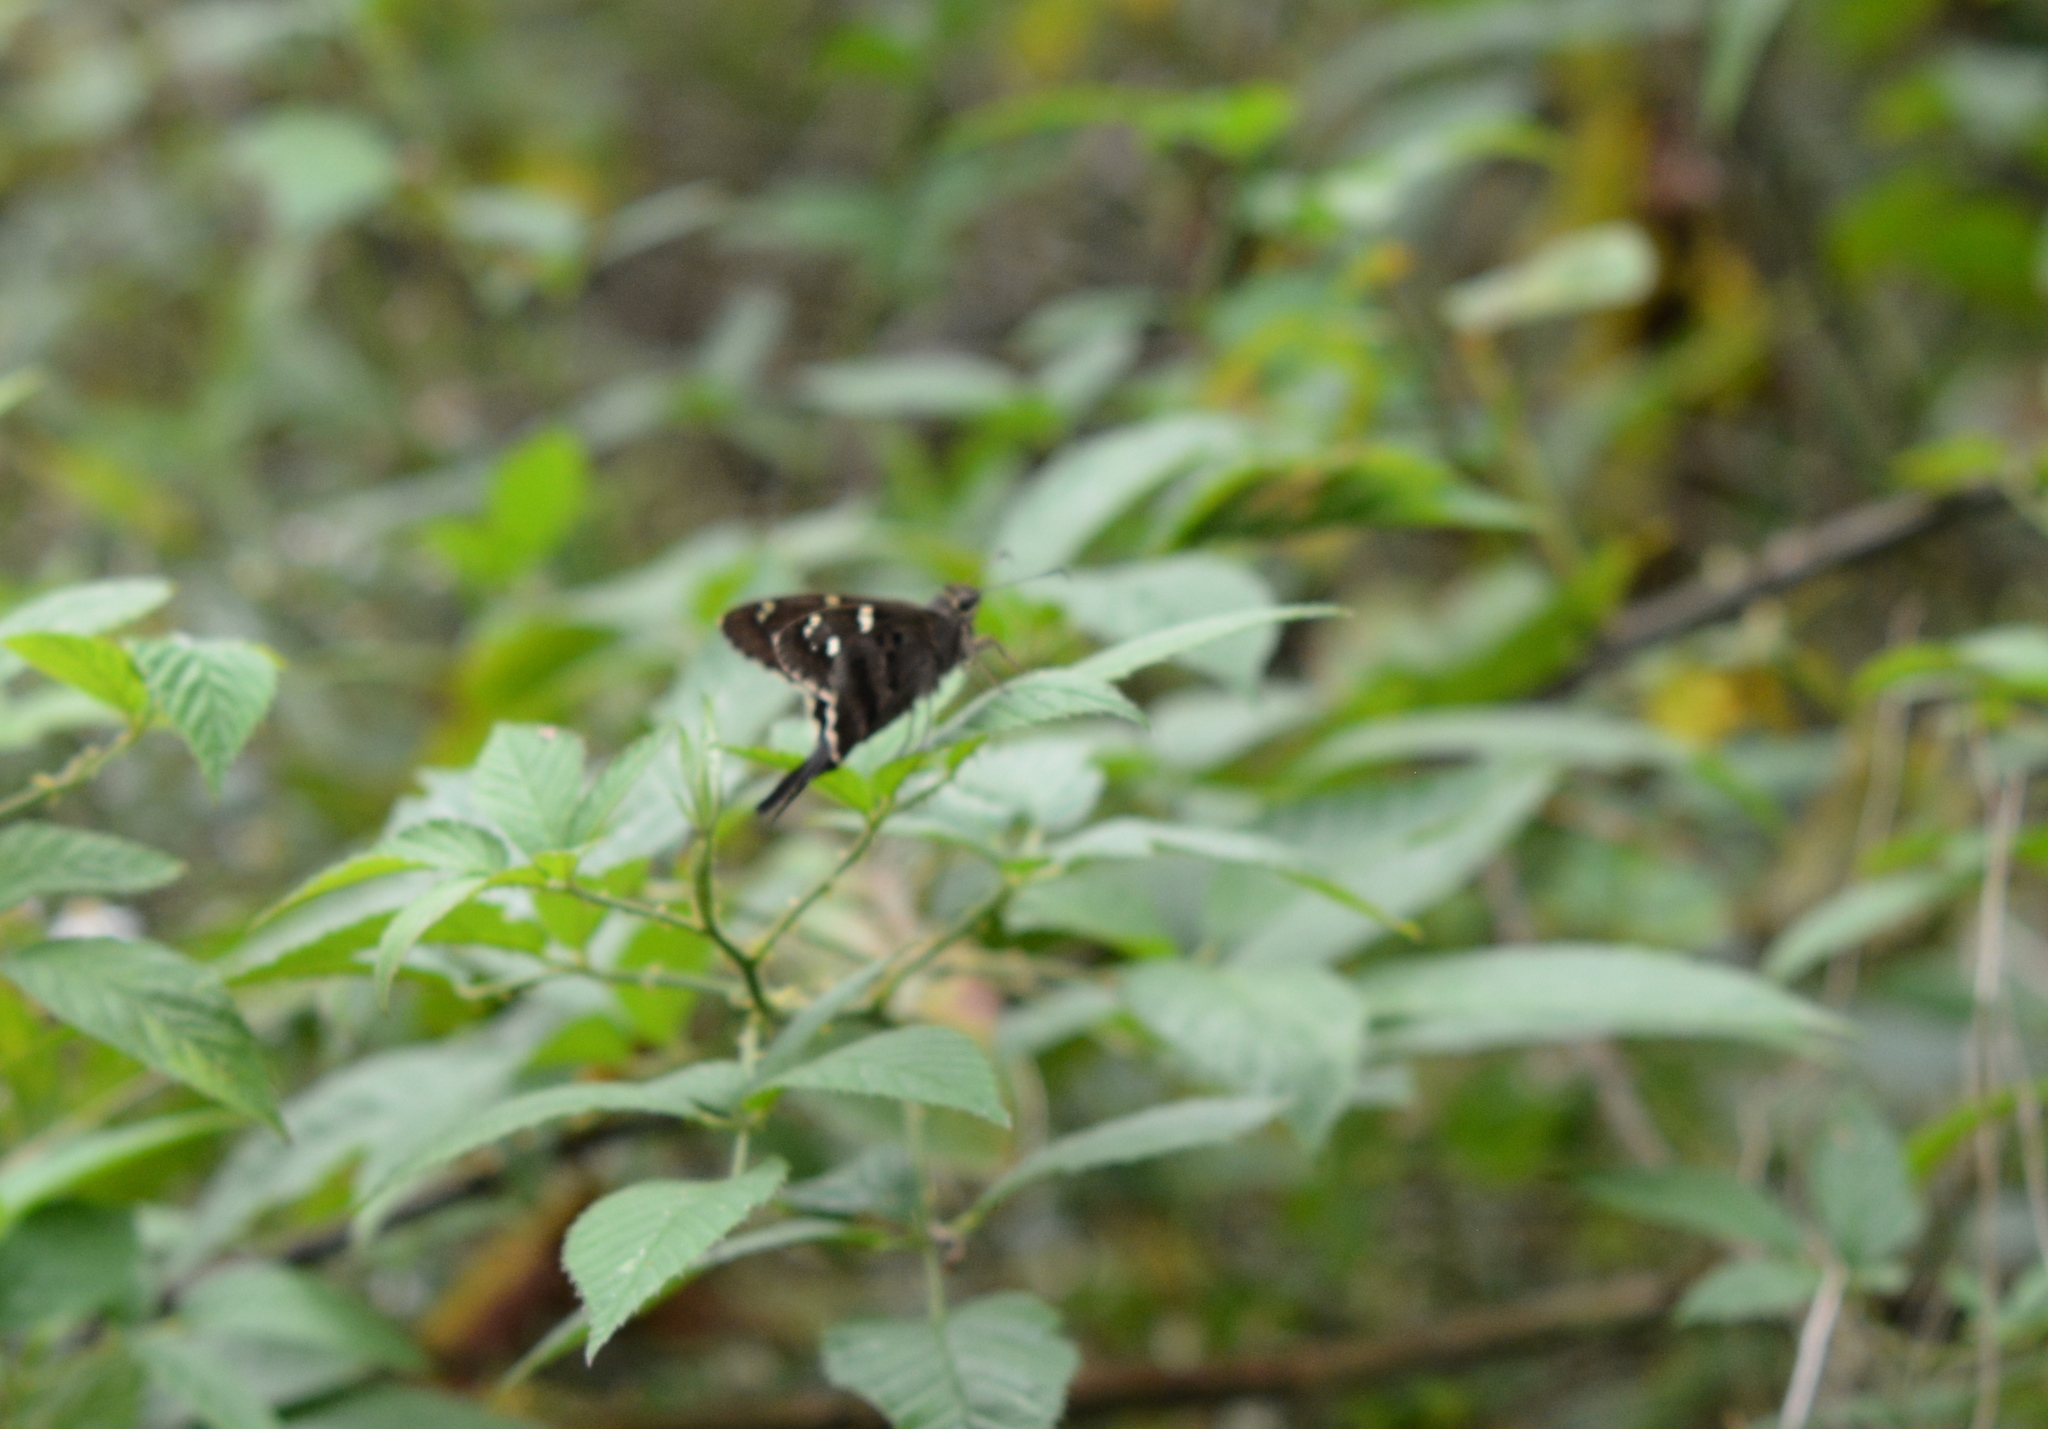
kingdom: Animalia
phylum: Arthropoda
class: Insecta
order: Lepidoptera
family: Hesperiidae
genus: Urbanus
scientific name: Urbanus proteus
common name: Long-tailed skipper
